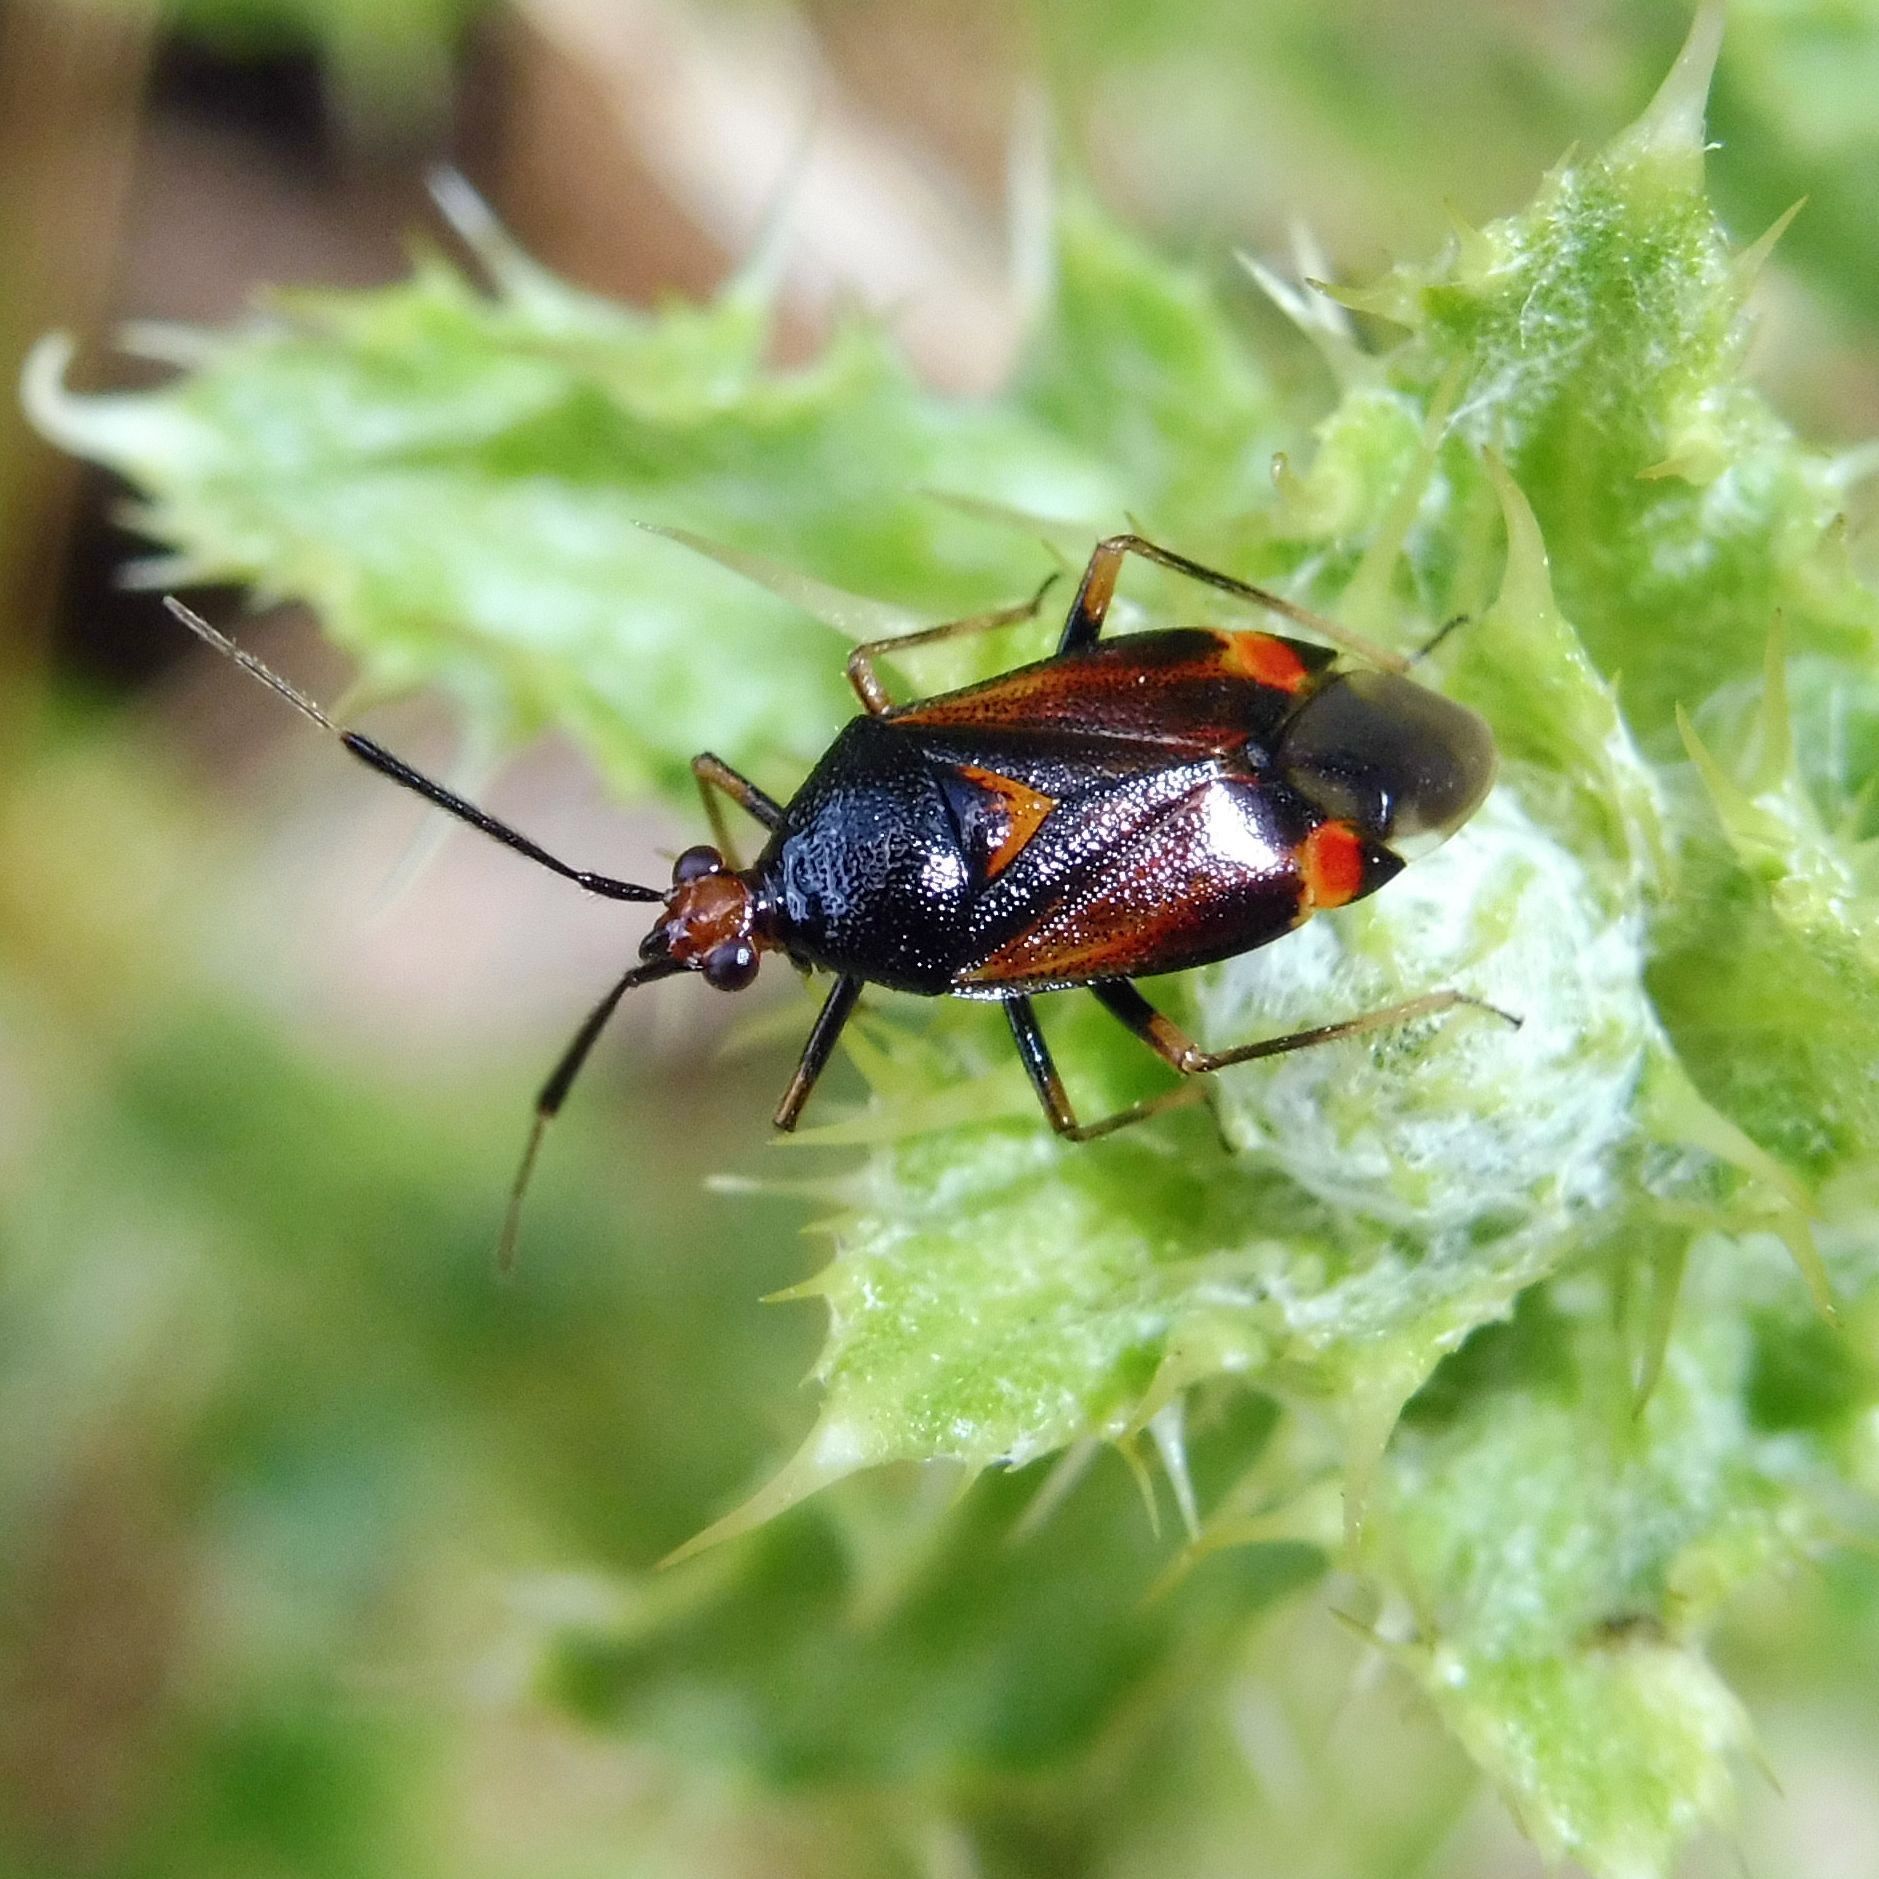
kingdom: Animalia
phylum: Arthropoda
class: Insecta
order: Hemiptera
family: Miridae
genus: Deraeocoris
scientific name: Deraeocoris ruber
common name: Plant bug
